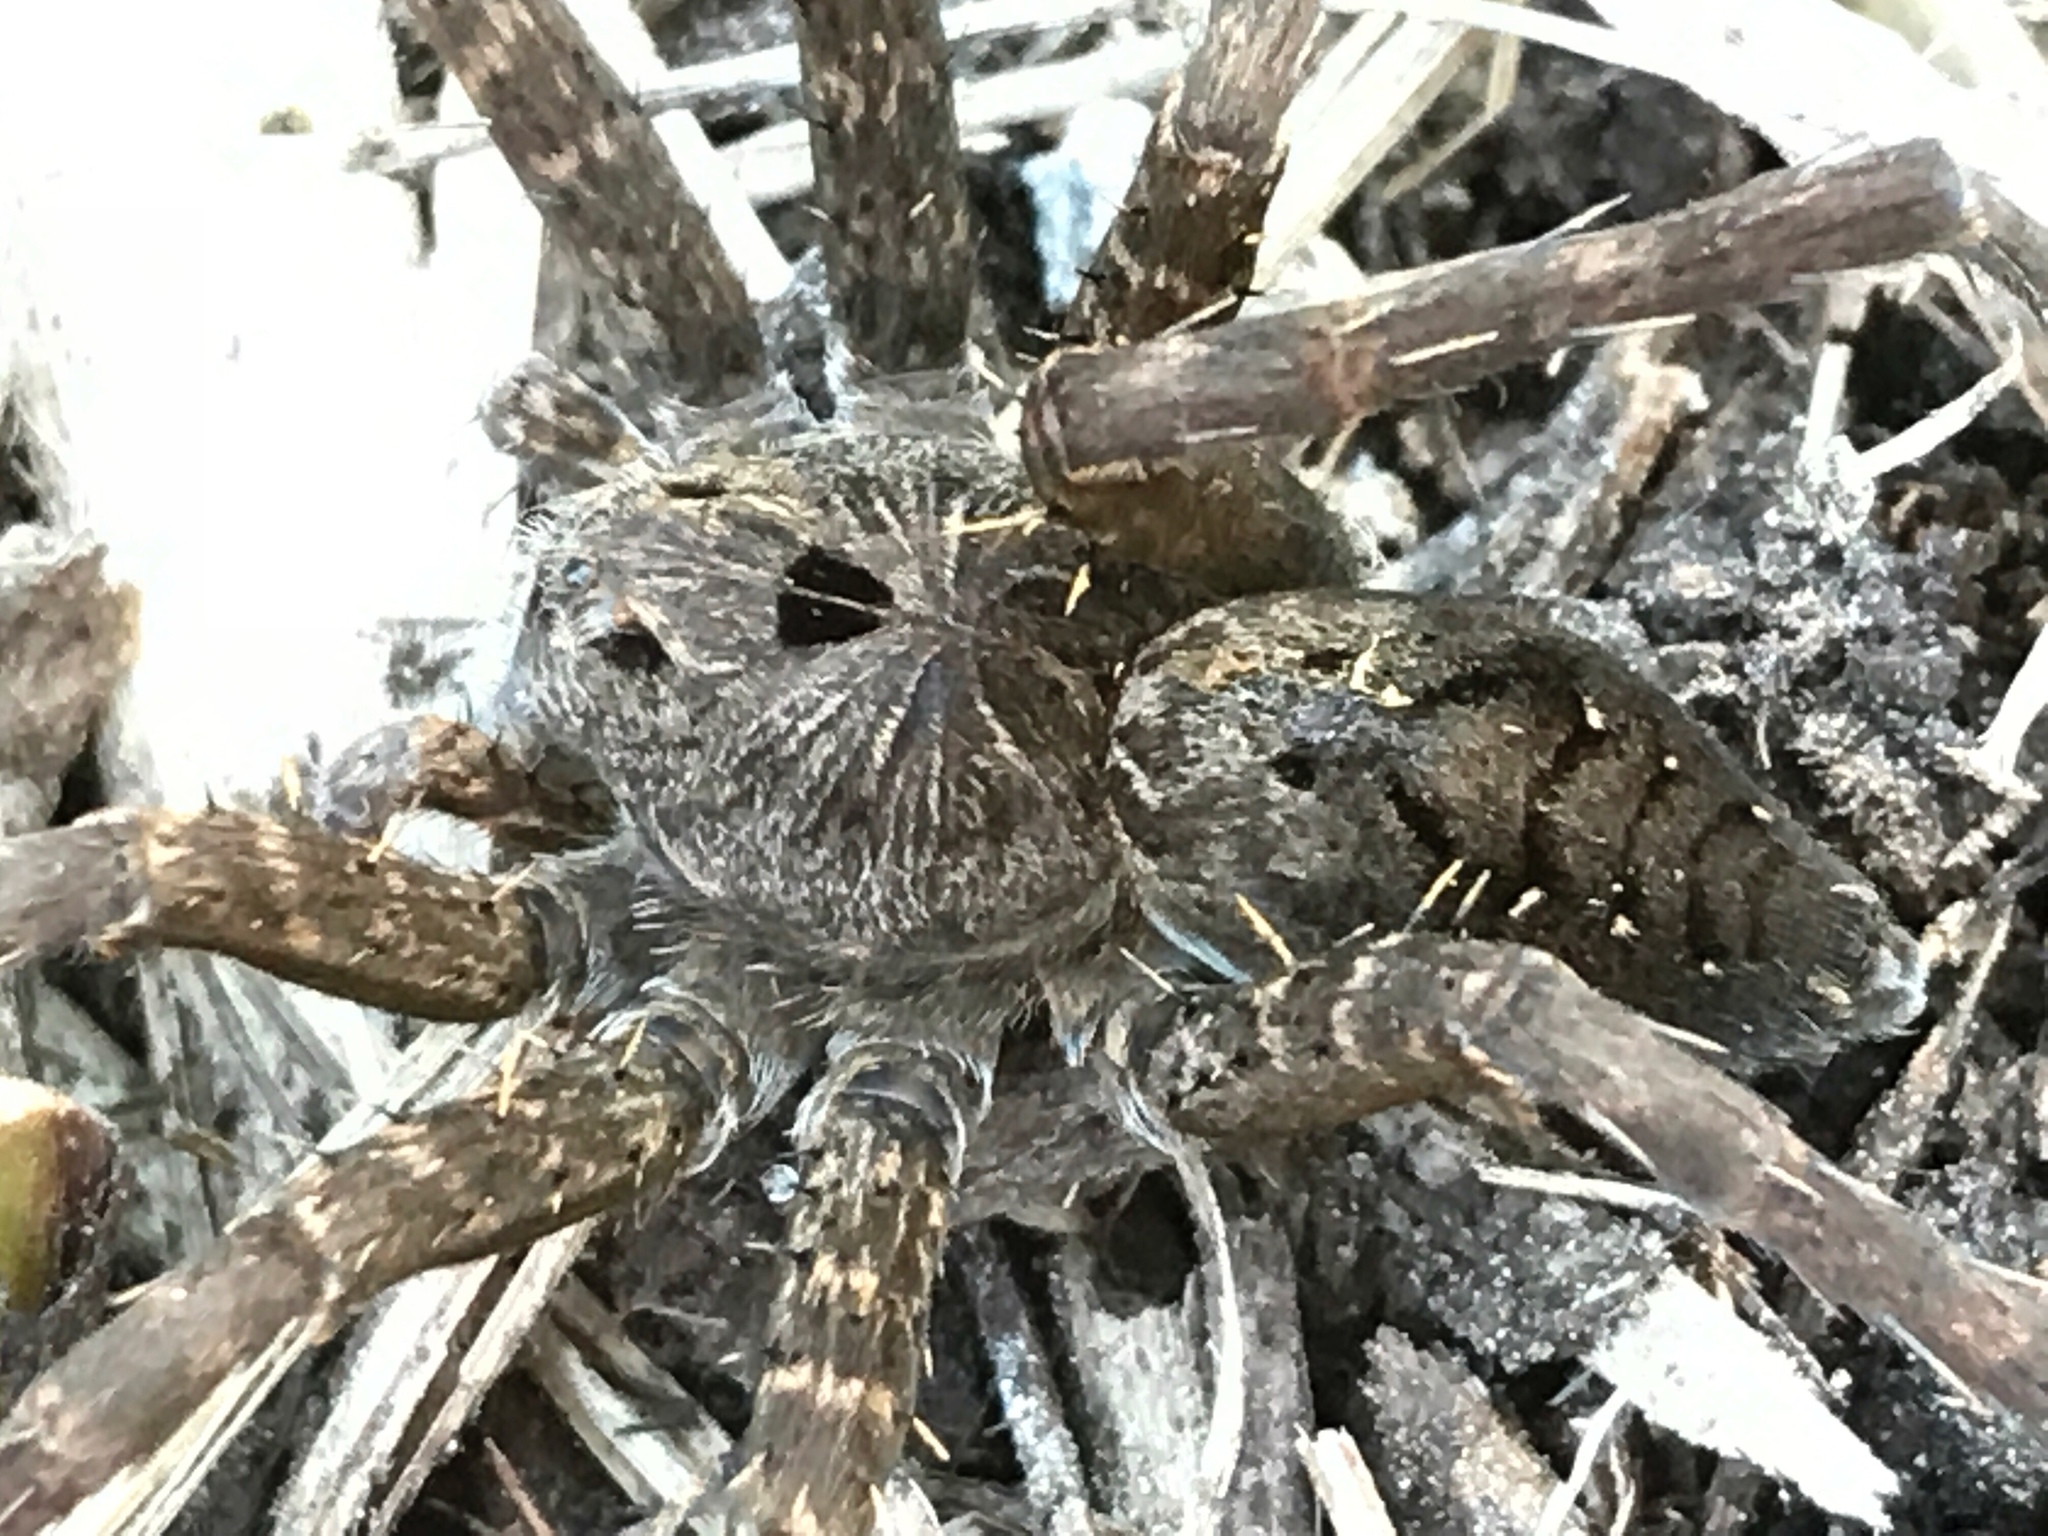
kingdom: Animalia
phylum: Arthropoda
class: Arachnida
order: Araneae
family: Pisauridae
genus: Dolomedes
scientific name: Dolomedes vittatus
